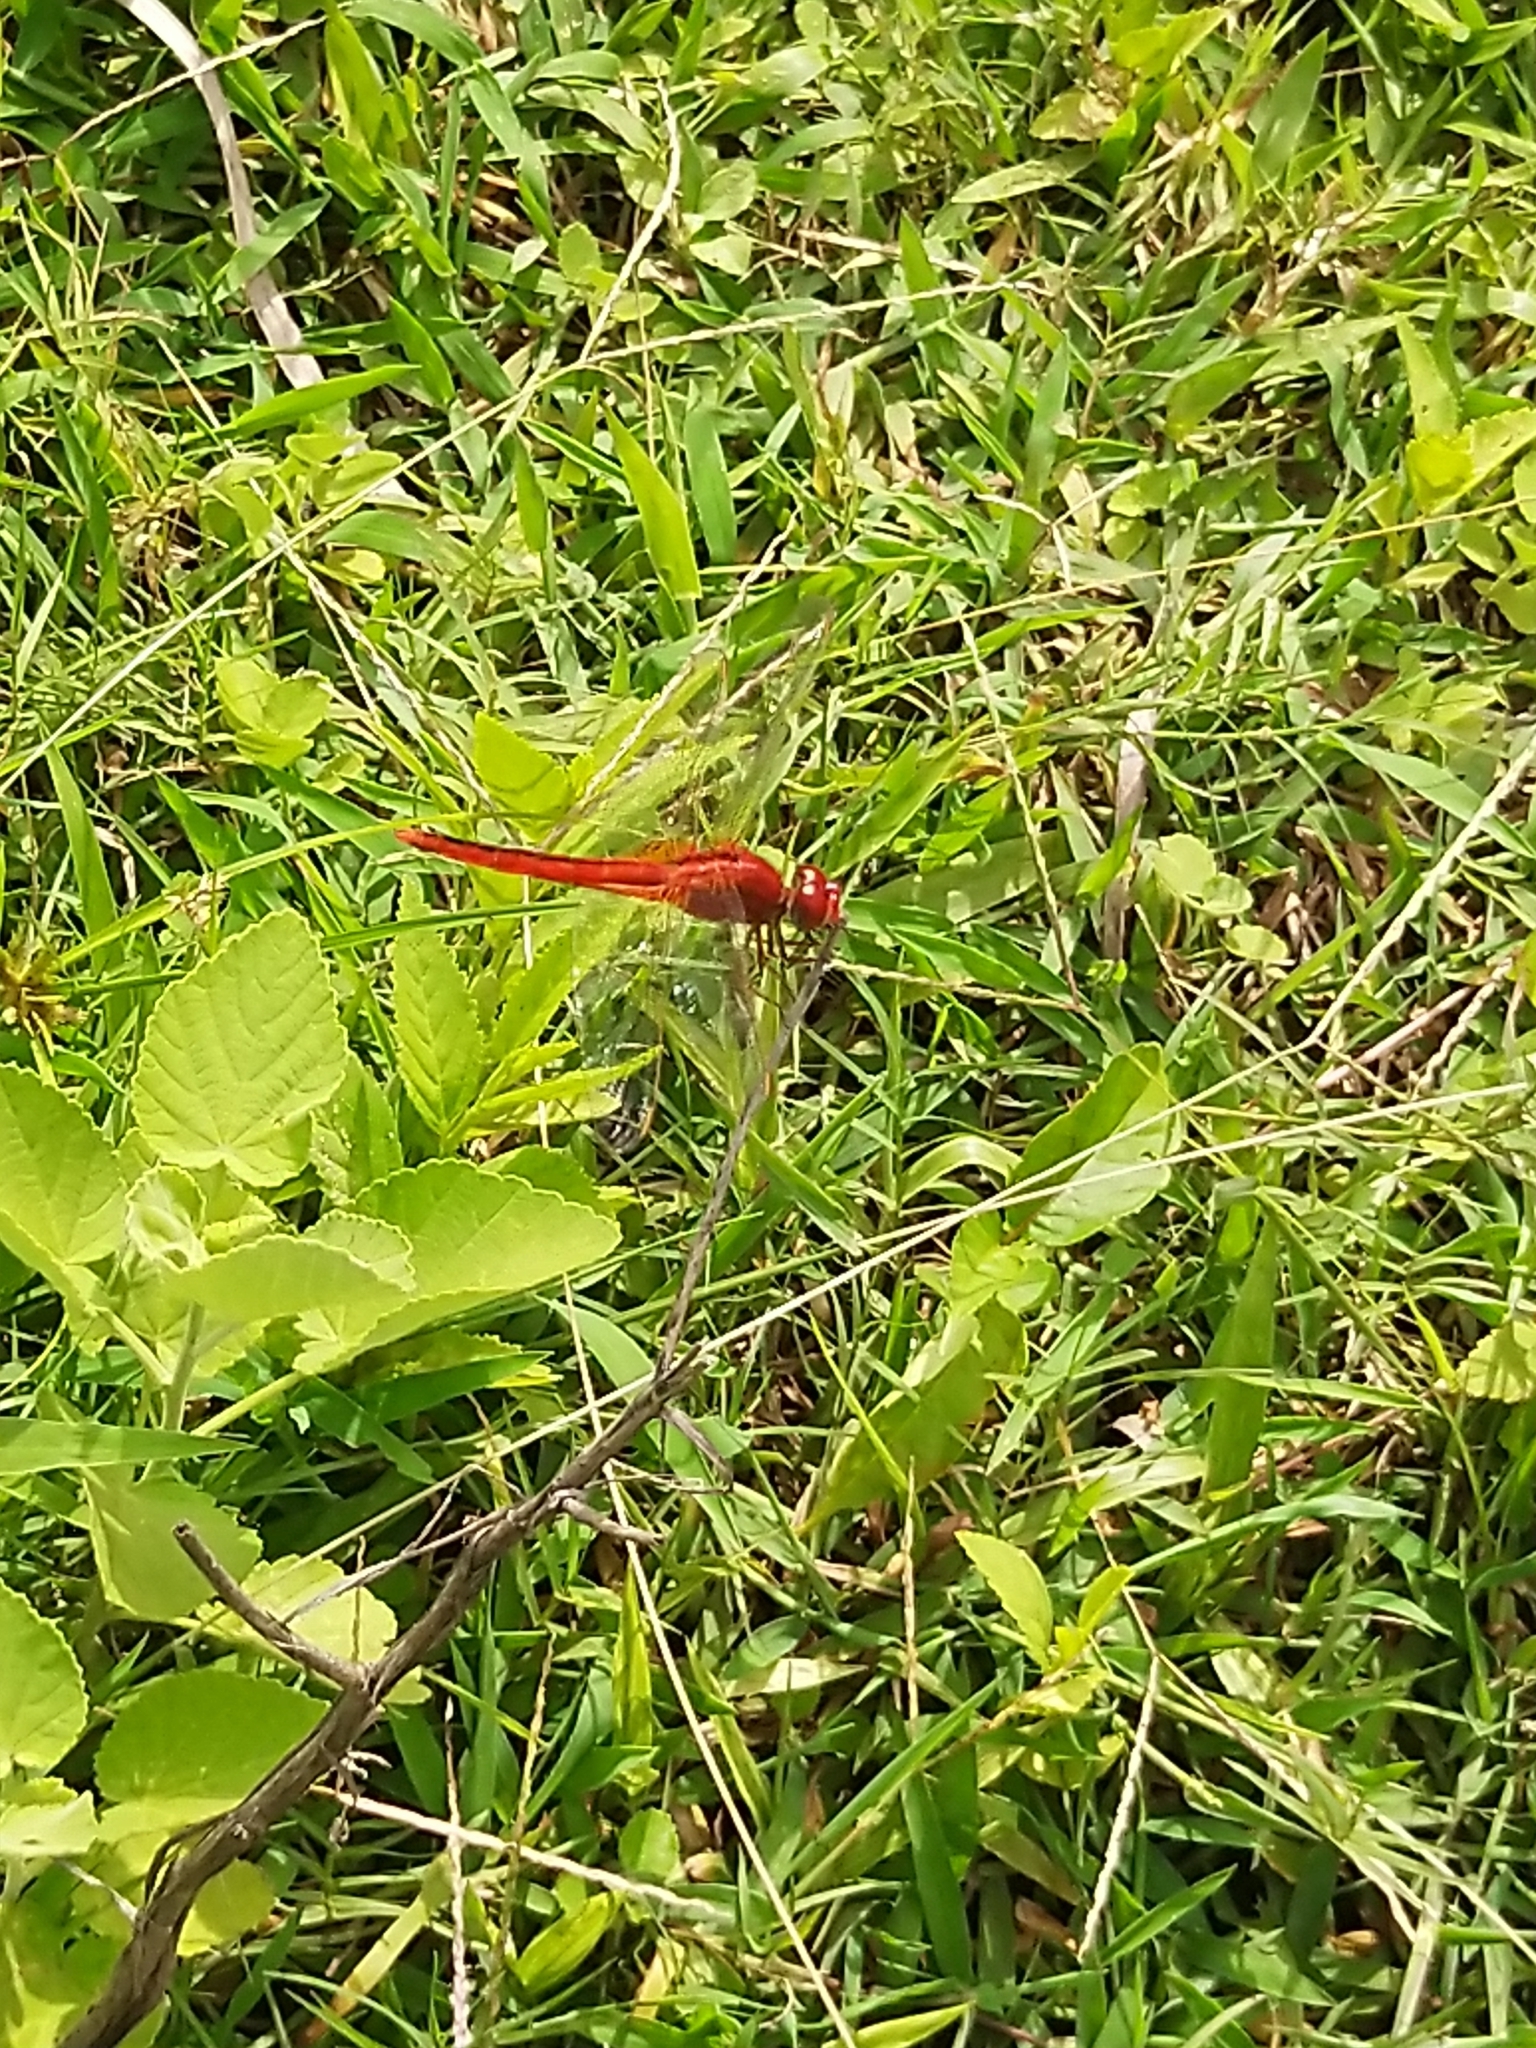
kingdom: Animalia
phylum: Arthropoda
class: Insecta
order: Odonata
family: Libellulidae
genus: Crocothemis
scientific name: Crocothemis servilia
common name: Scarlet skimmer
